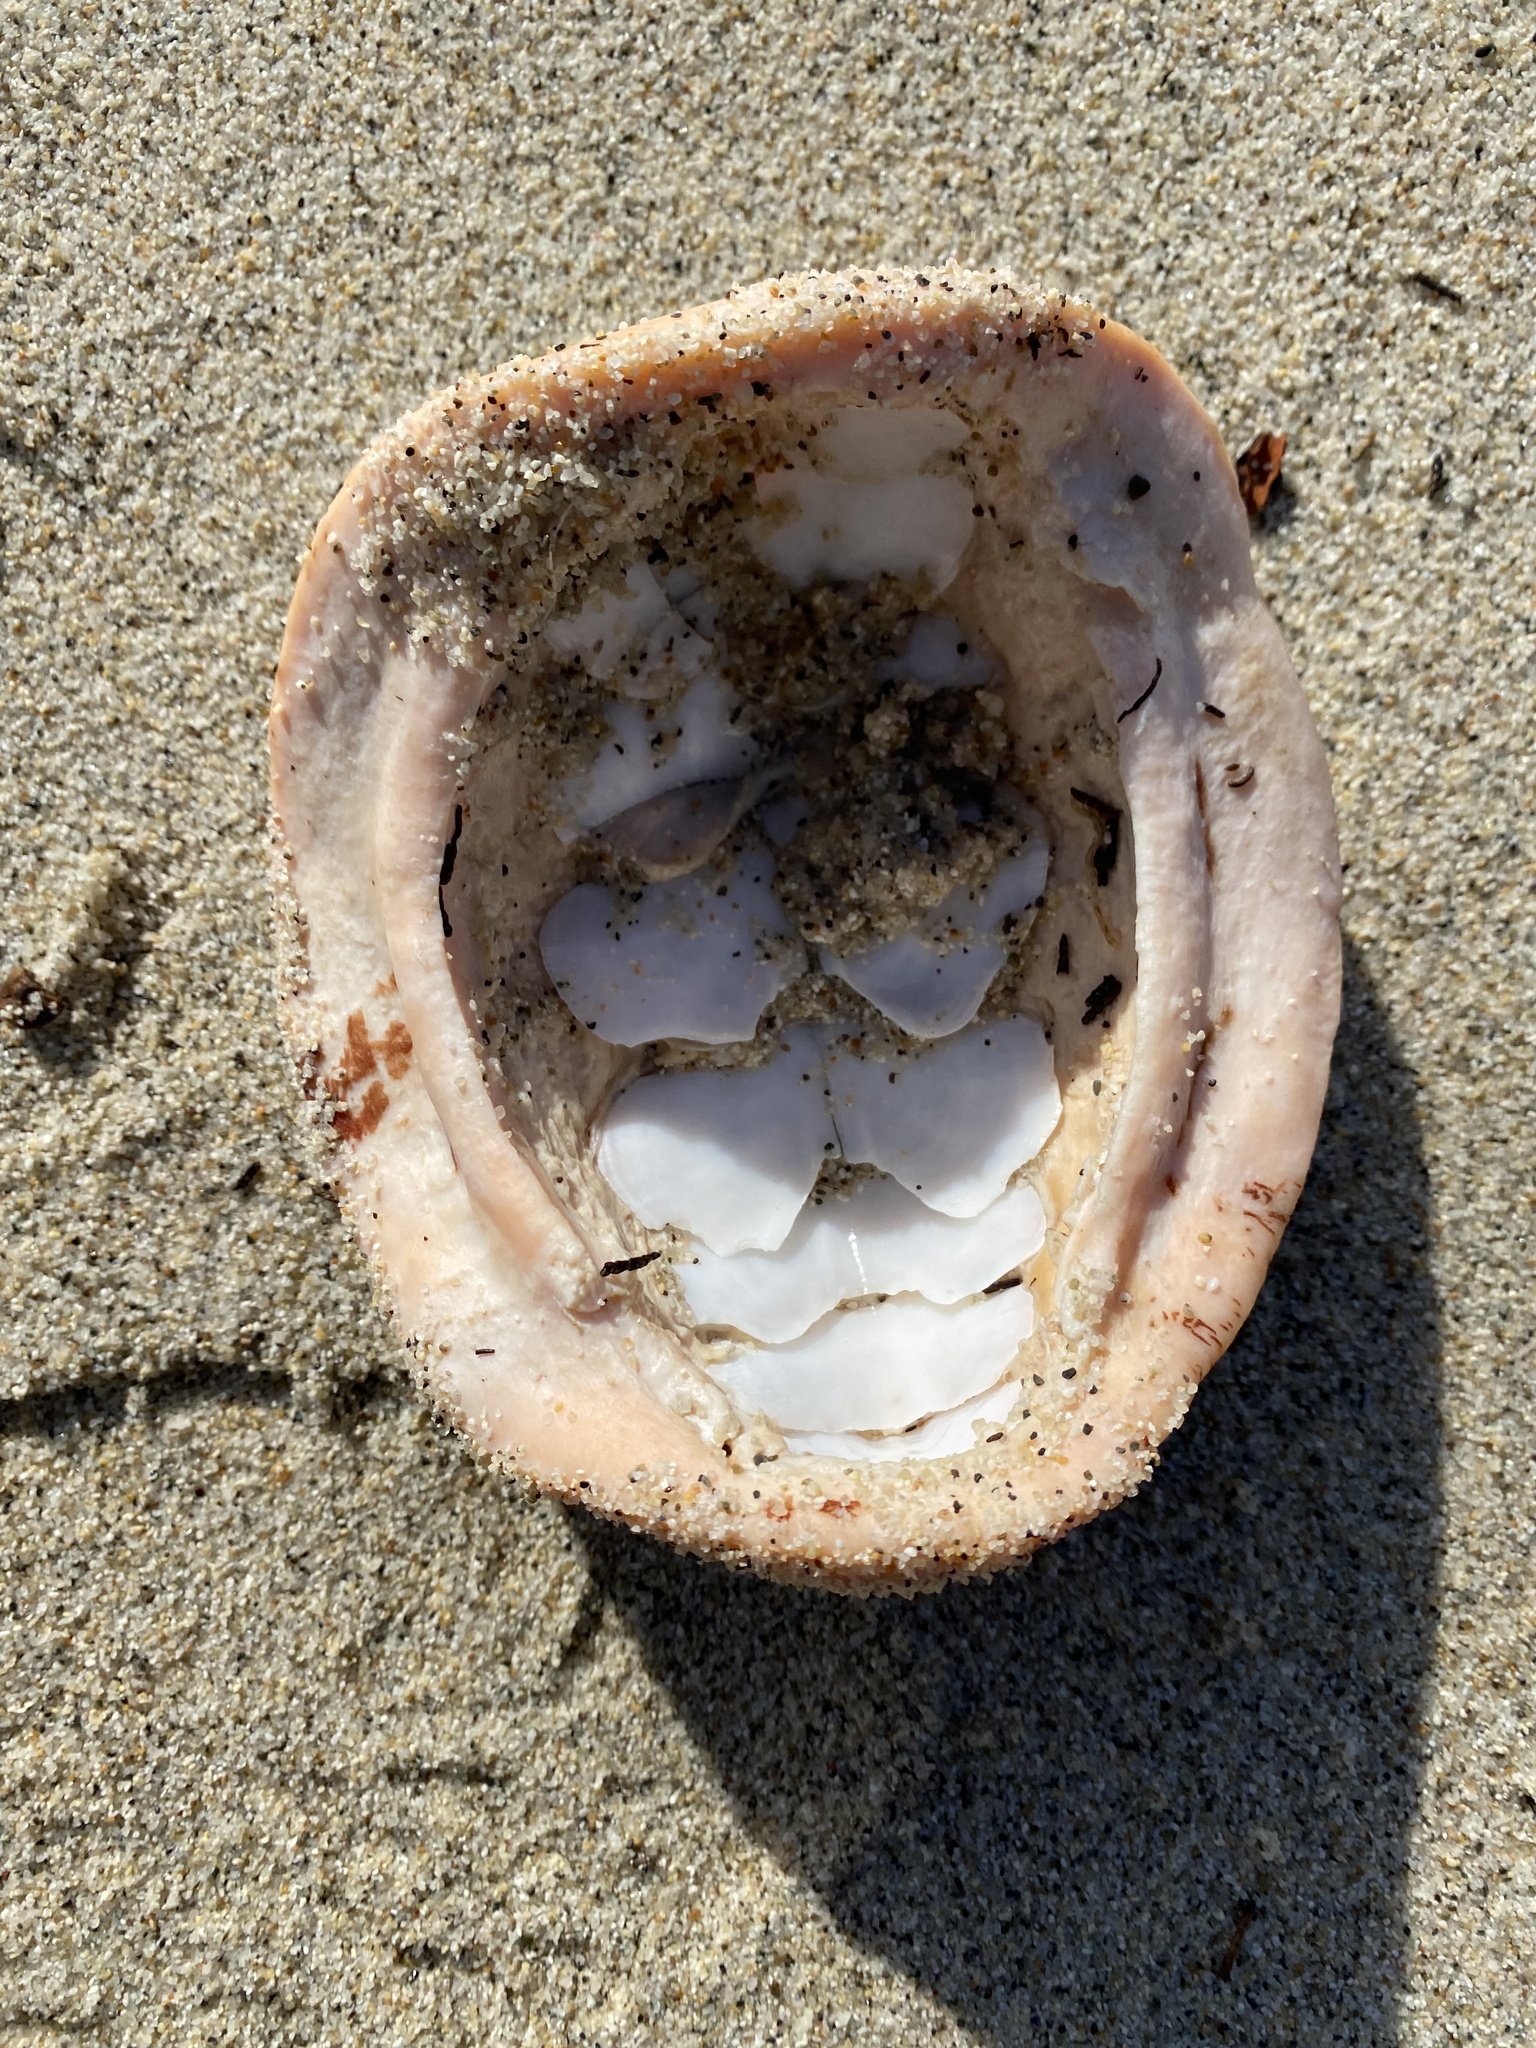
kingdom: Animalia
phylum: Mollusca
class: Polyplacophora
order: Chitonida
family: Acanthochitonidae
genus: Cryptochiton
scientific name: Cryptochiton stelleri
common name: Giant pacific chiton
